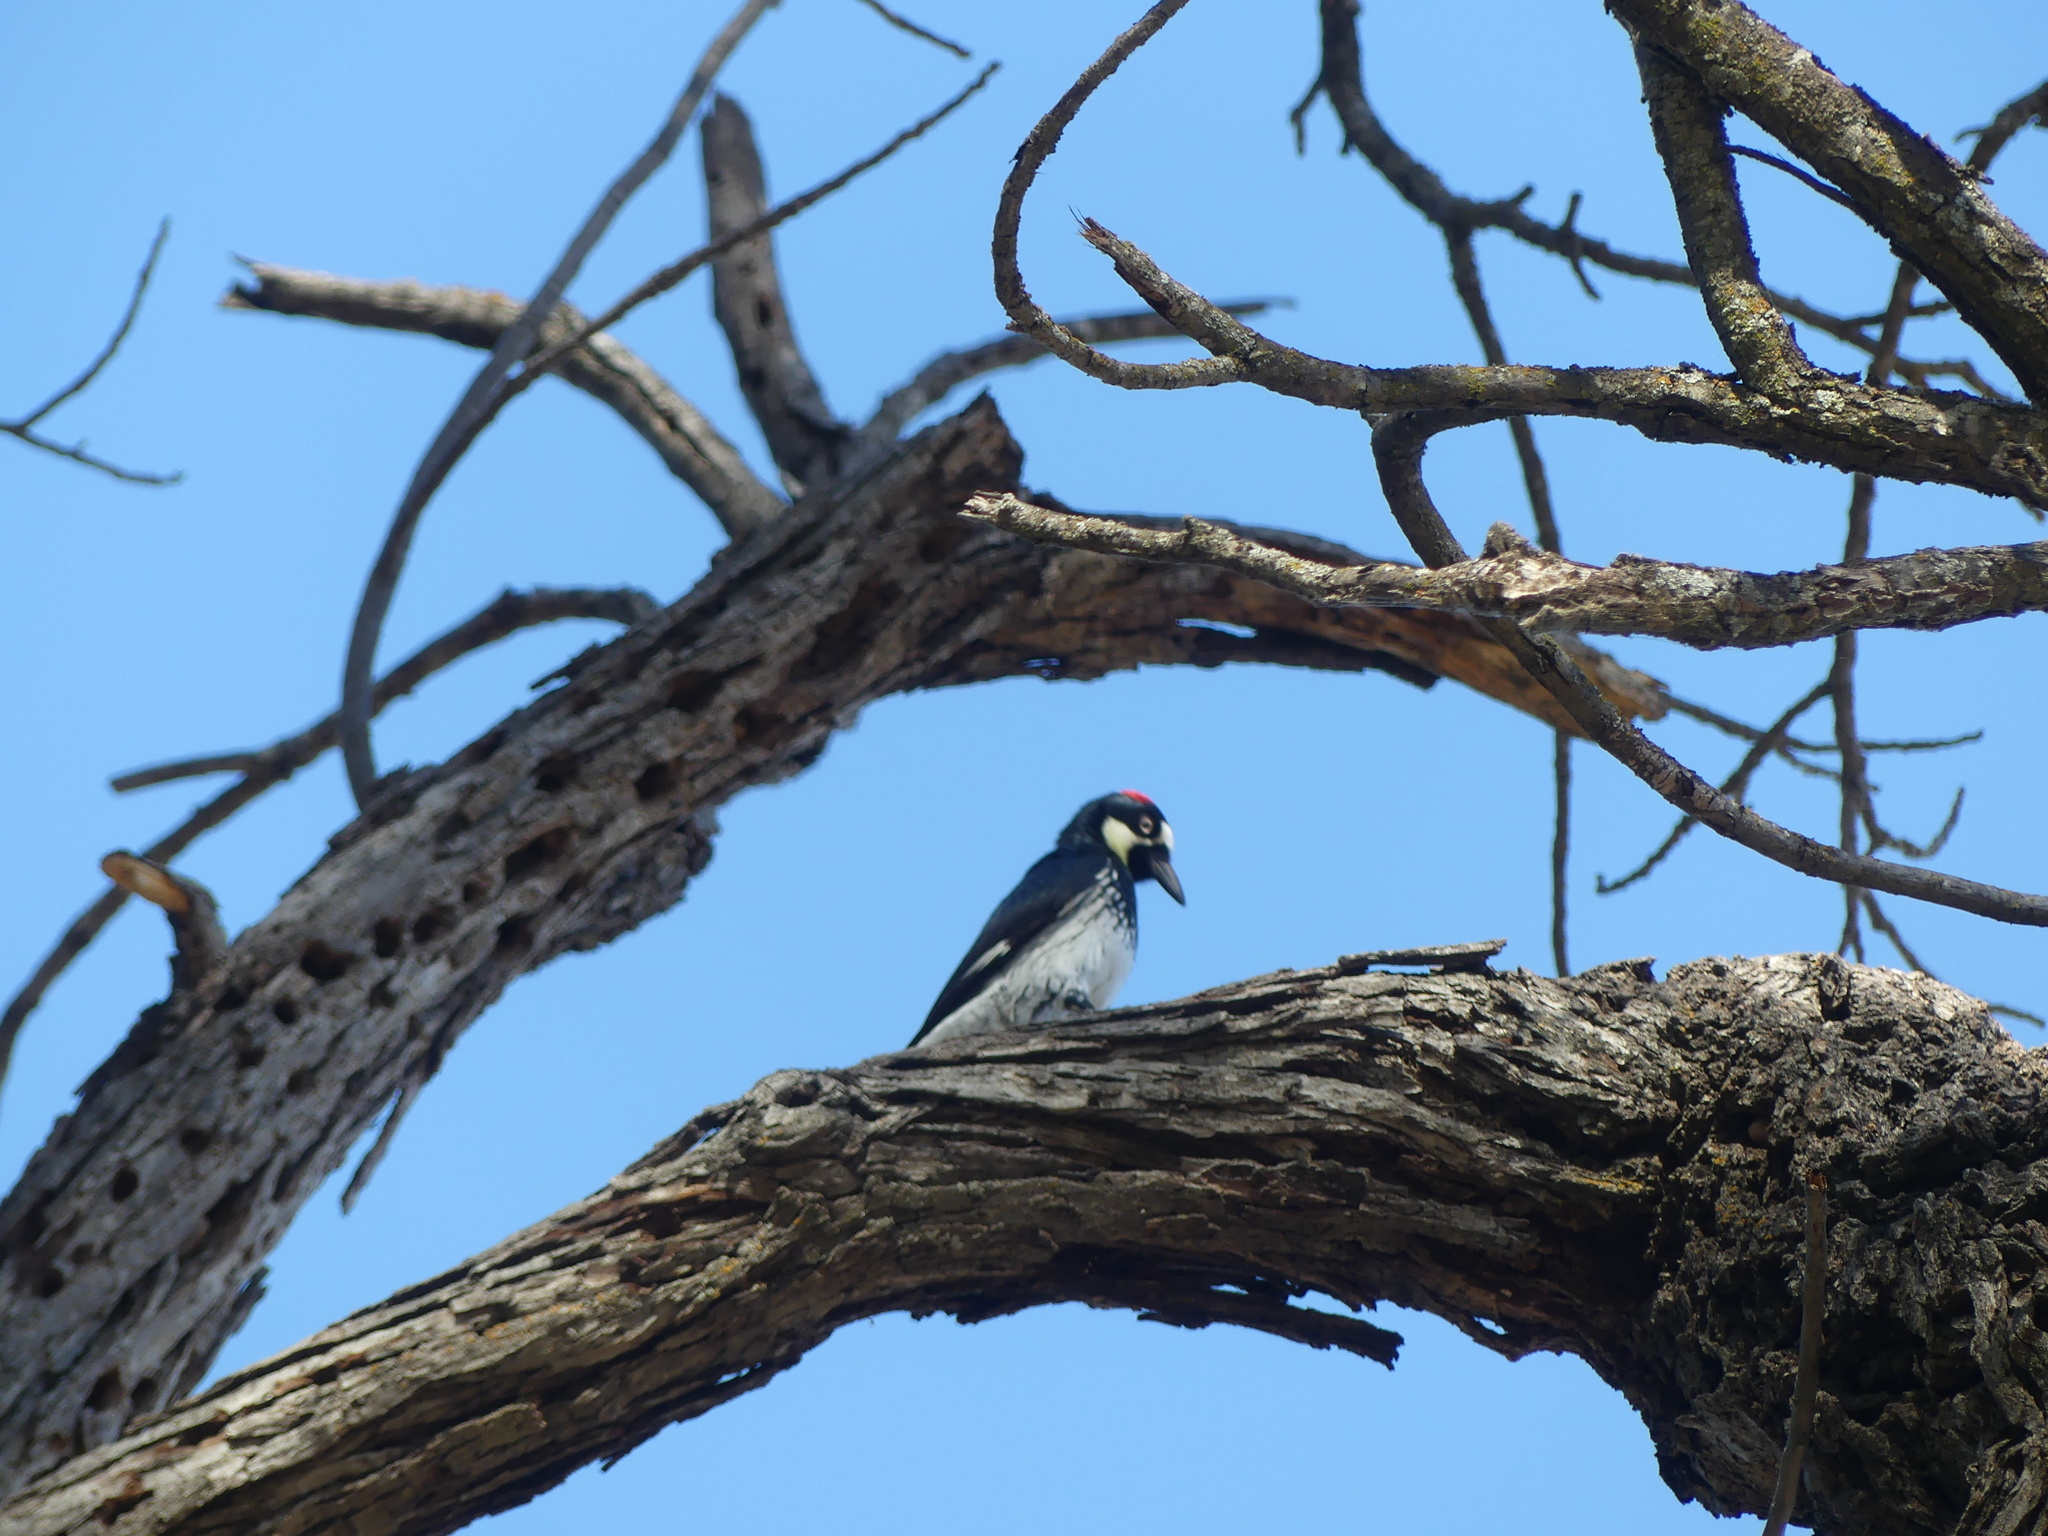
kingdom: Animalia
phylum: Chordata
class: Aves
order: Piciformes
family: Picidae
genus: Melanerpes
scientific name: Melanerpes formicivorus
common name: Acorn woodpecker
